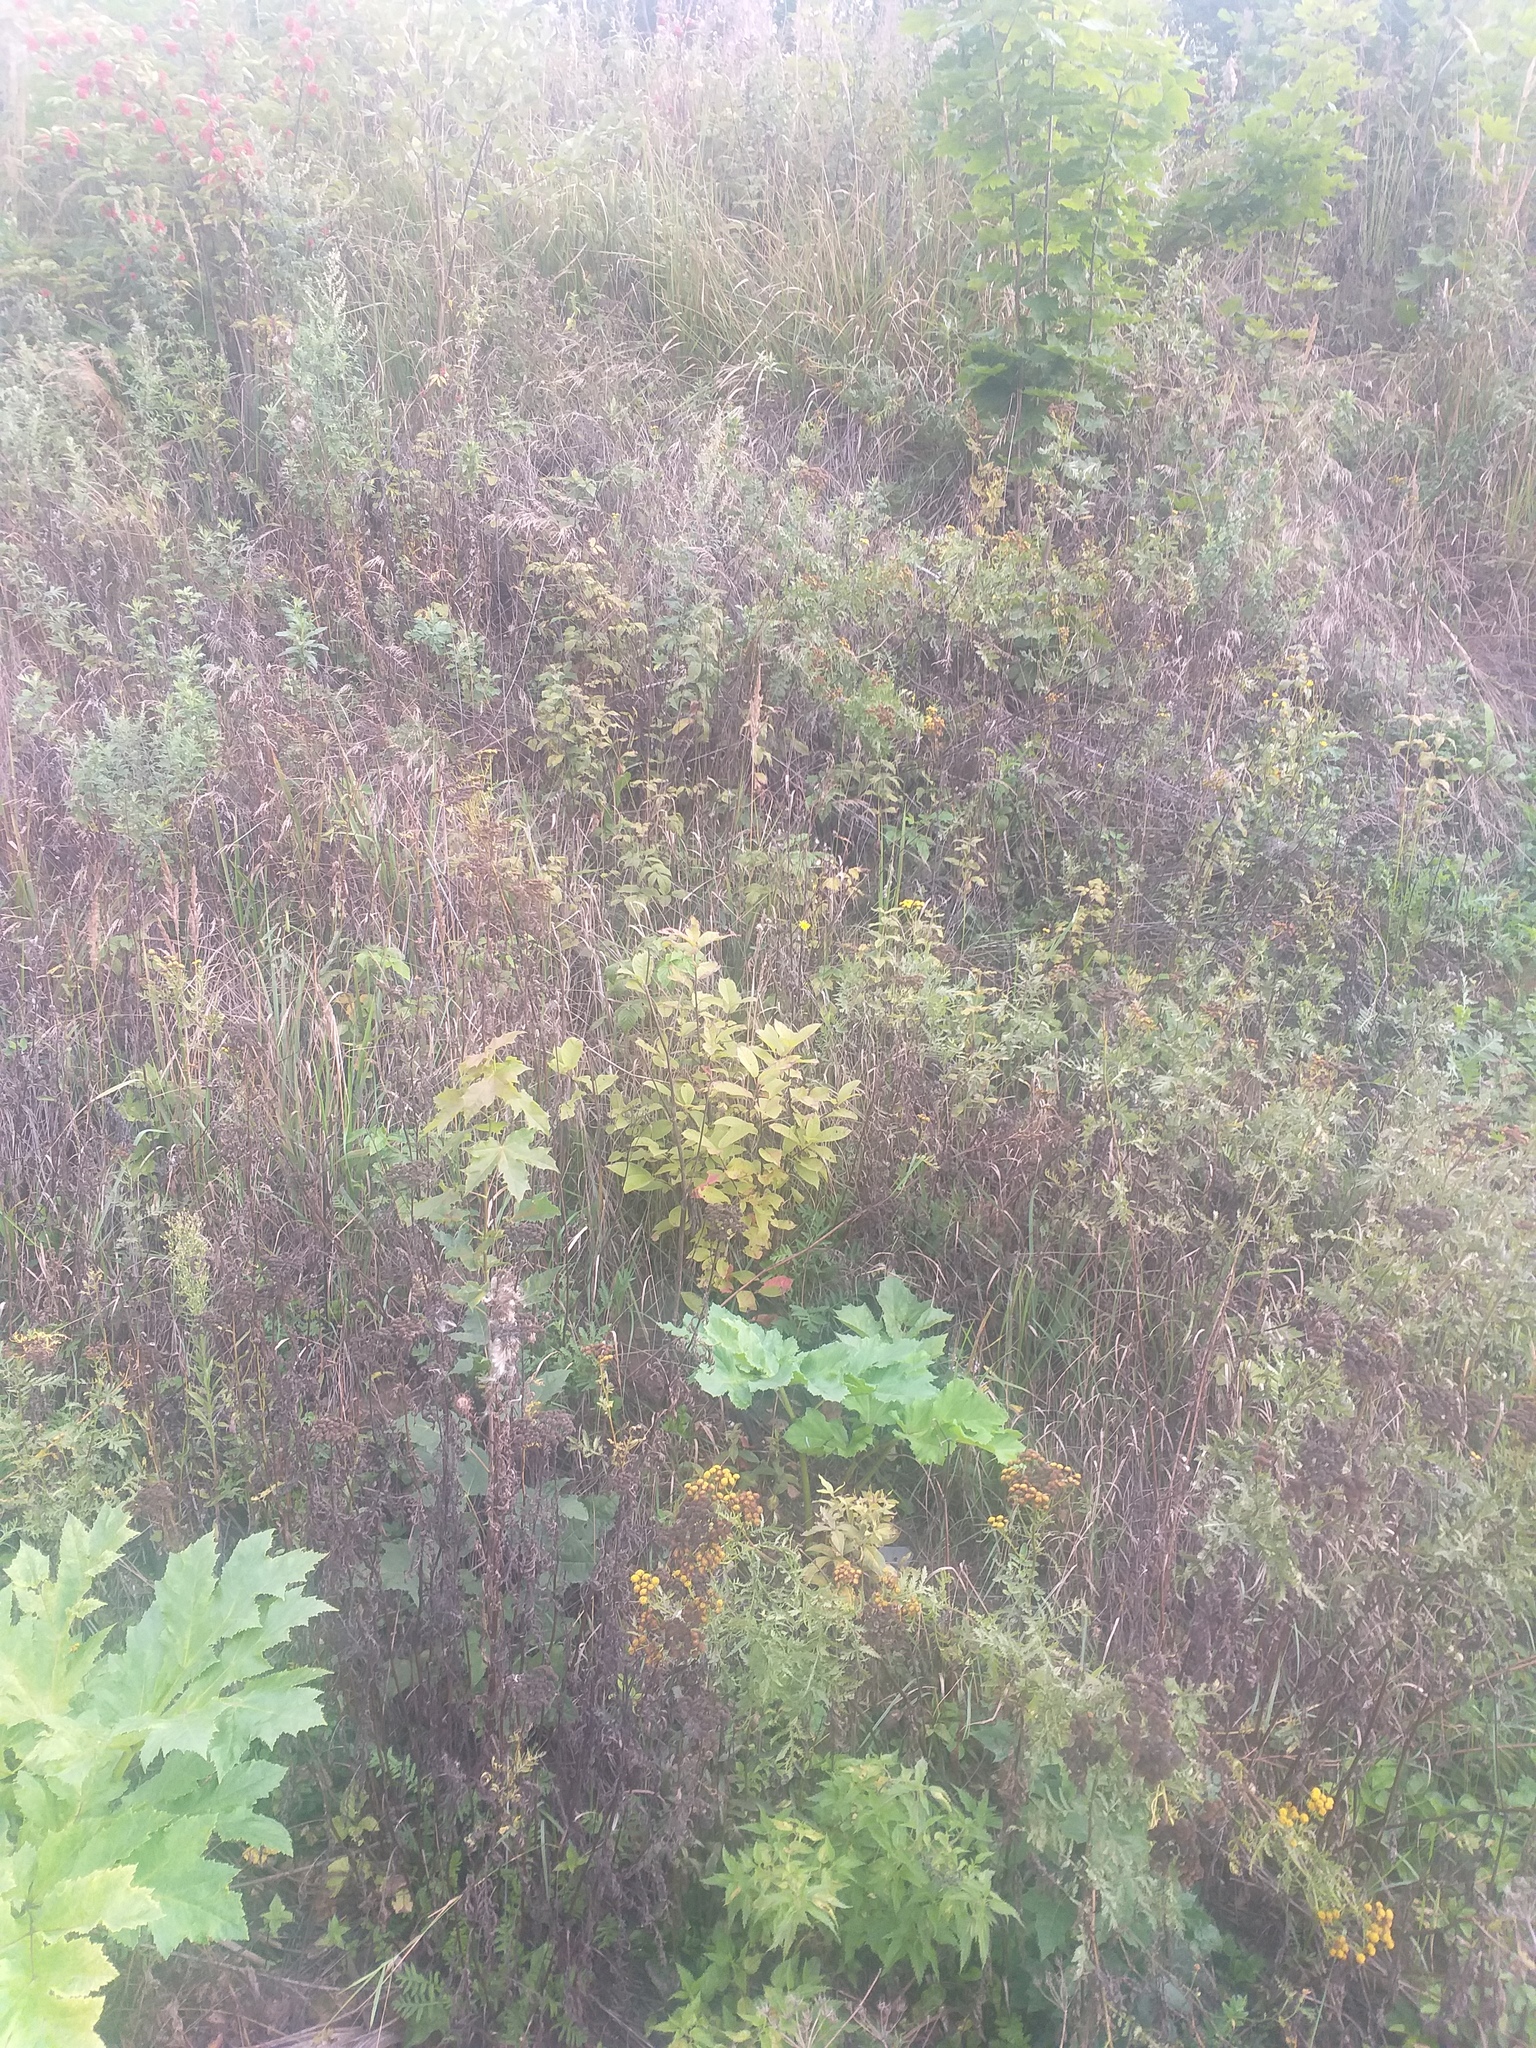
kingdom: Plantae
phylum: Tracheophyta
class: Magnoliopsida
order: Rosales
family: Rosaceae
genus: Prunus
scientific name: Prunus padus
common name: Bird cherry
